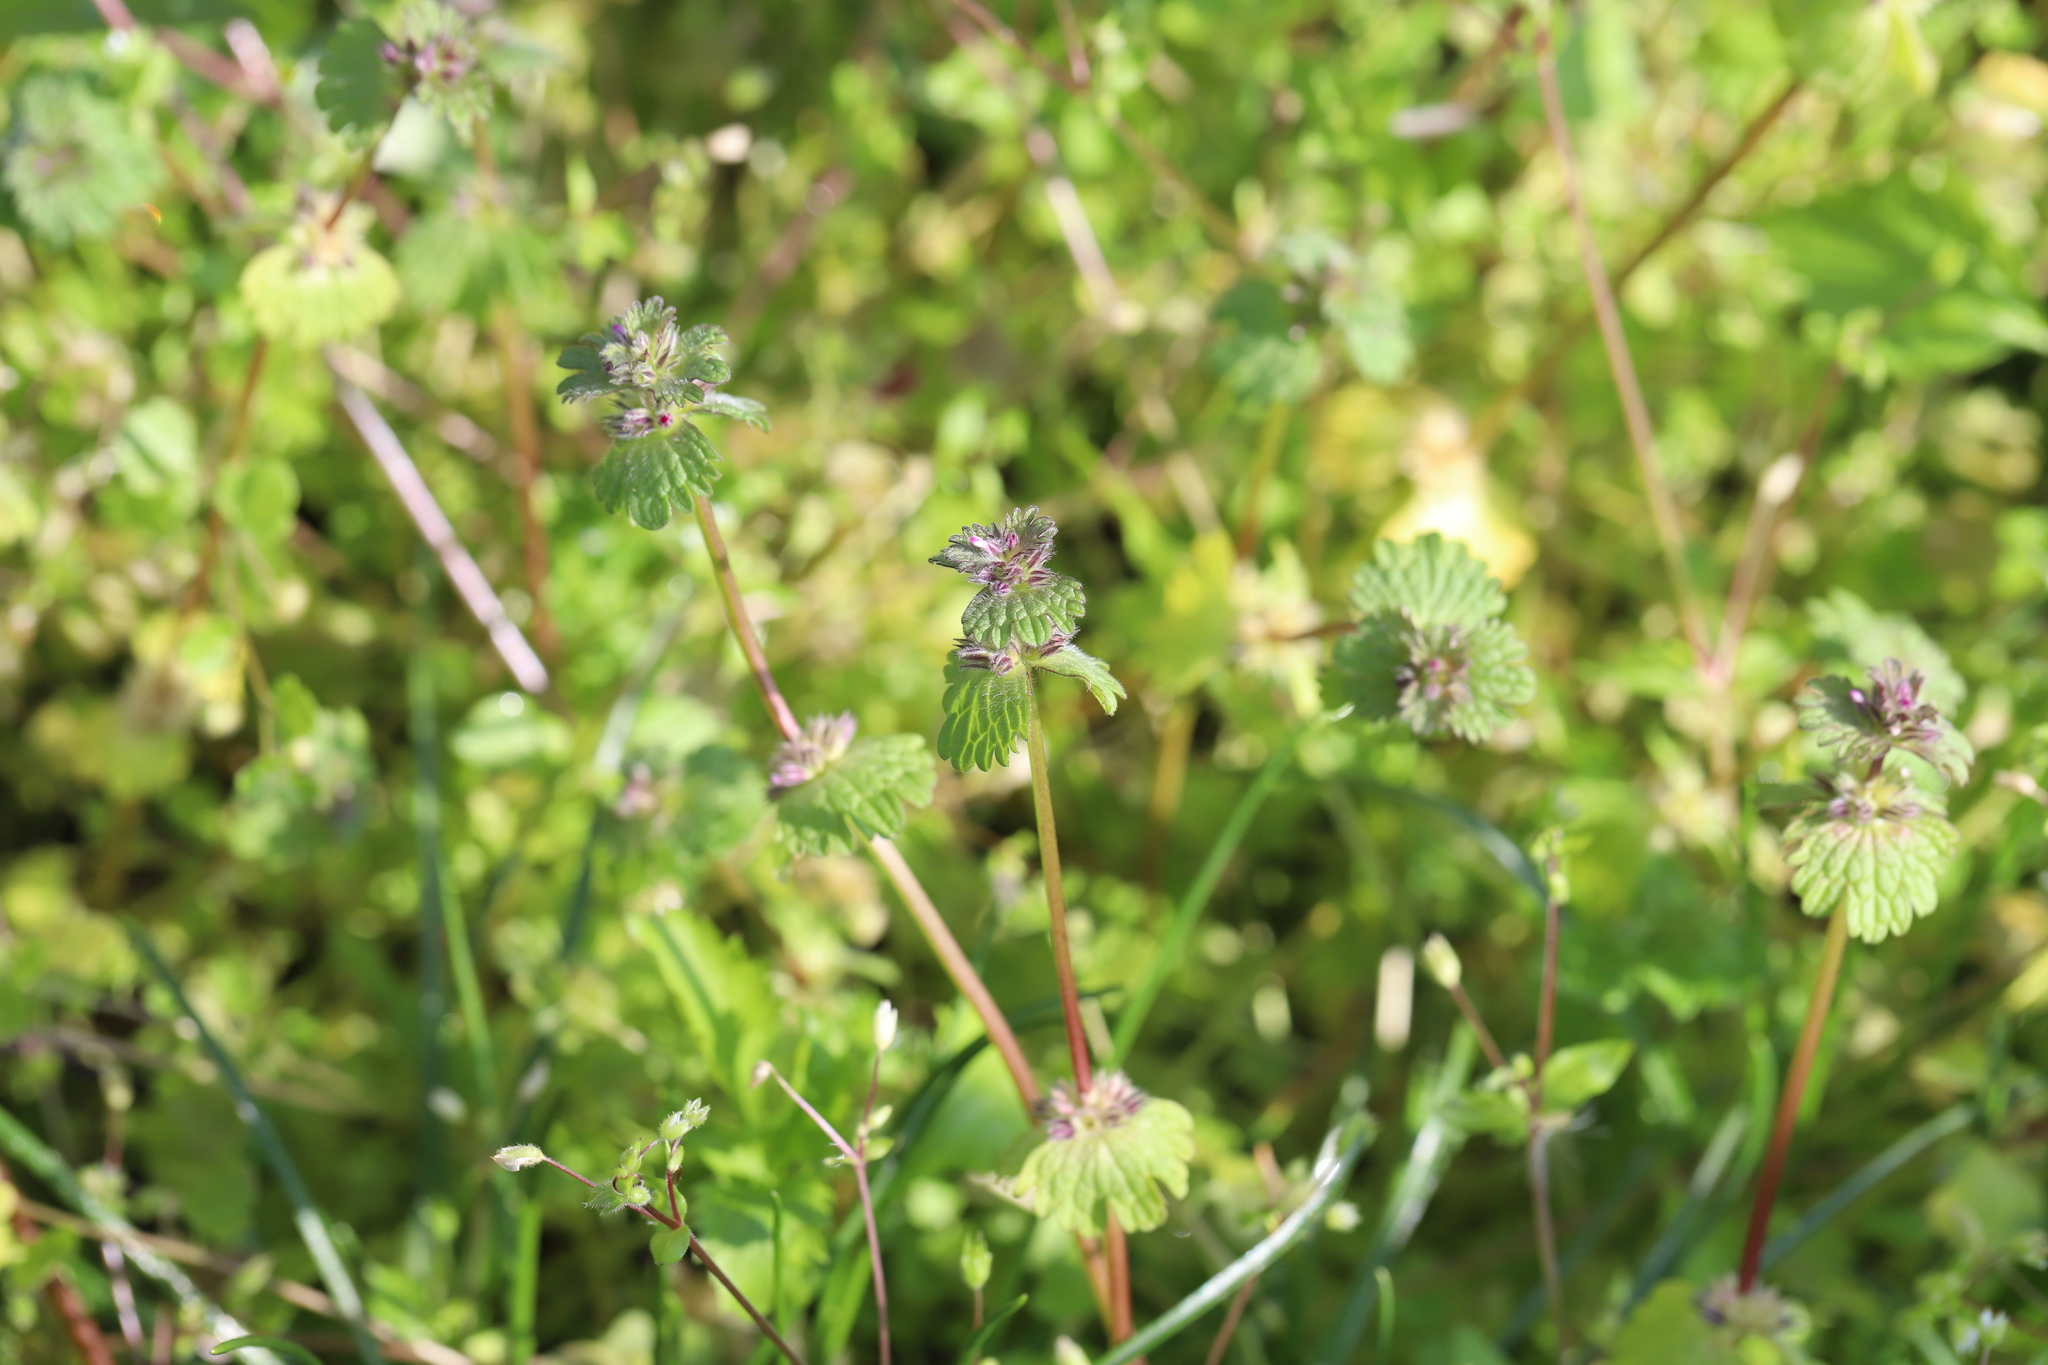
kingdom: Plantae
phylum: Tracheophyta
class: Magnoliopsida
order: Lamiales
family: Lamiaceae
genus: Lamium
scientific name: Lamium amplexicaule
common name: Henbit dead-nettle
